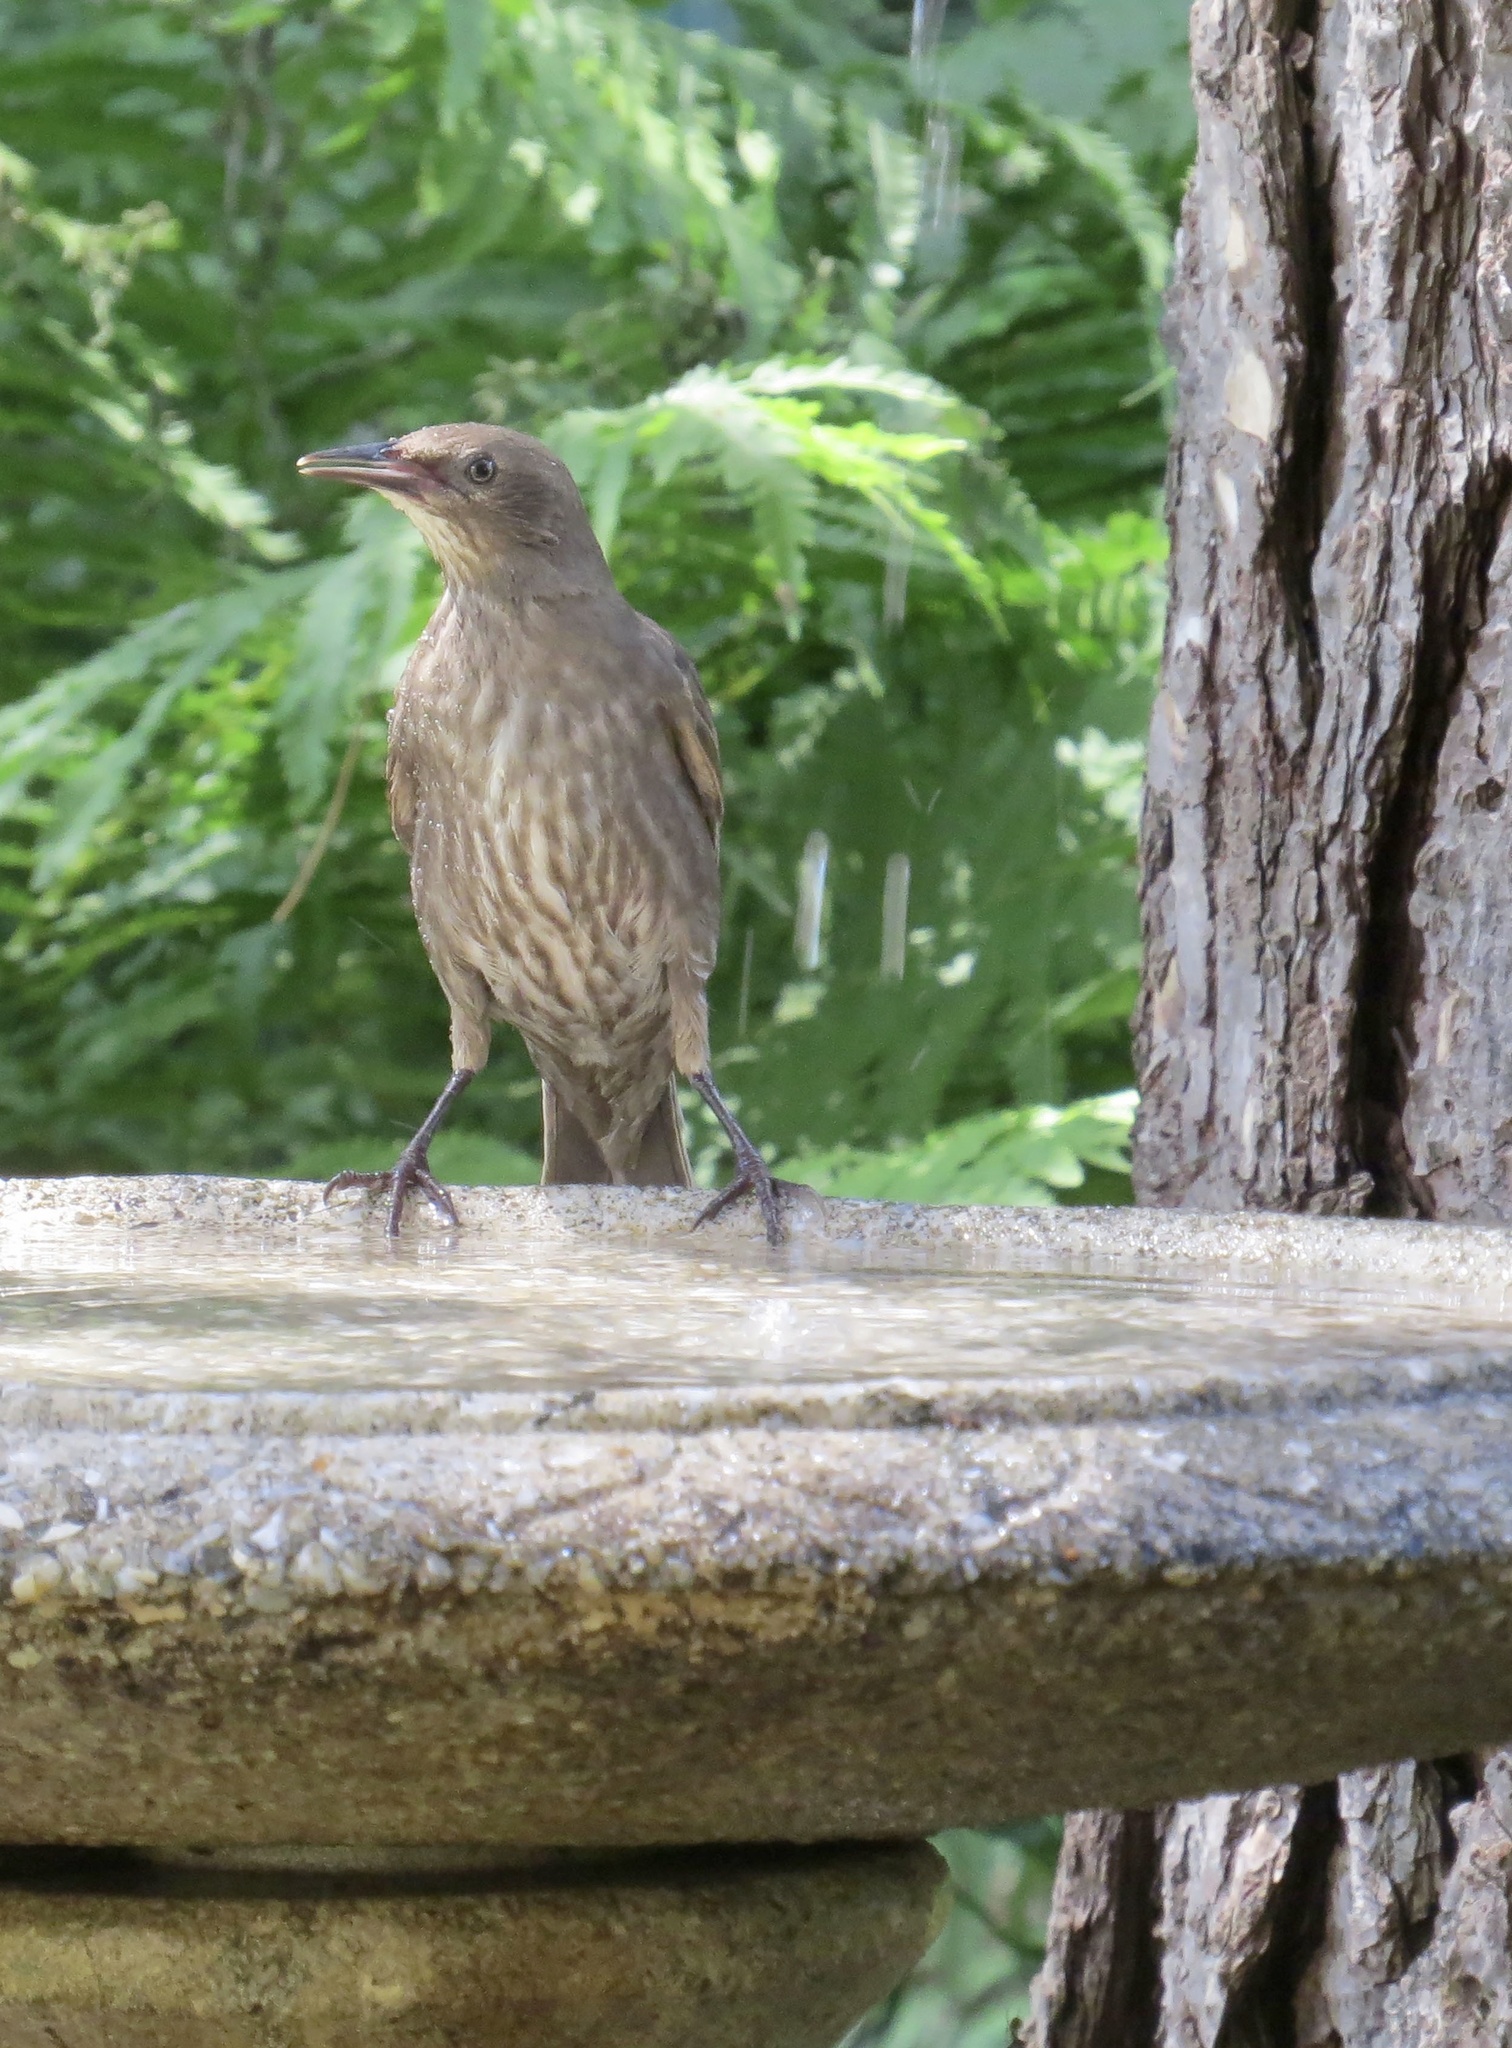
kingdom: Animalia
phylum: Chordata
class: Aves
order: Passeriformes
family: Sturnidae
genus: Sturnus
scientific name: Sturnus vulgaris
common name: Common starling
